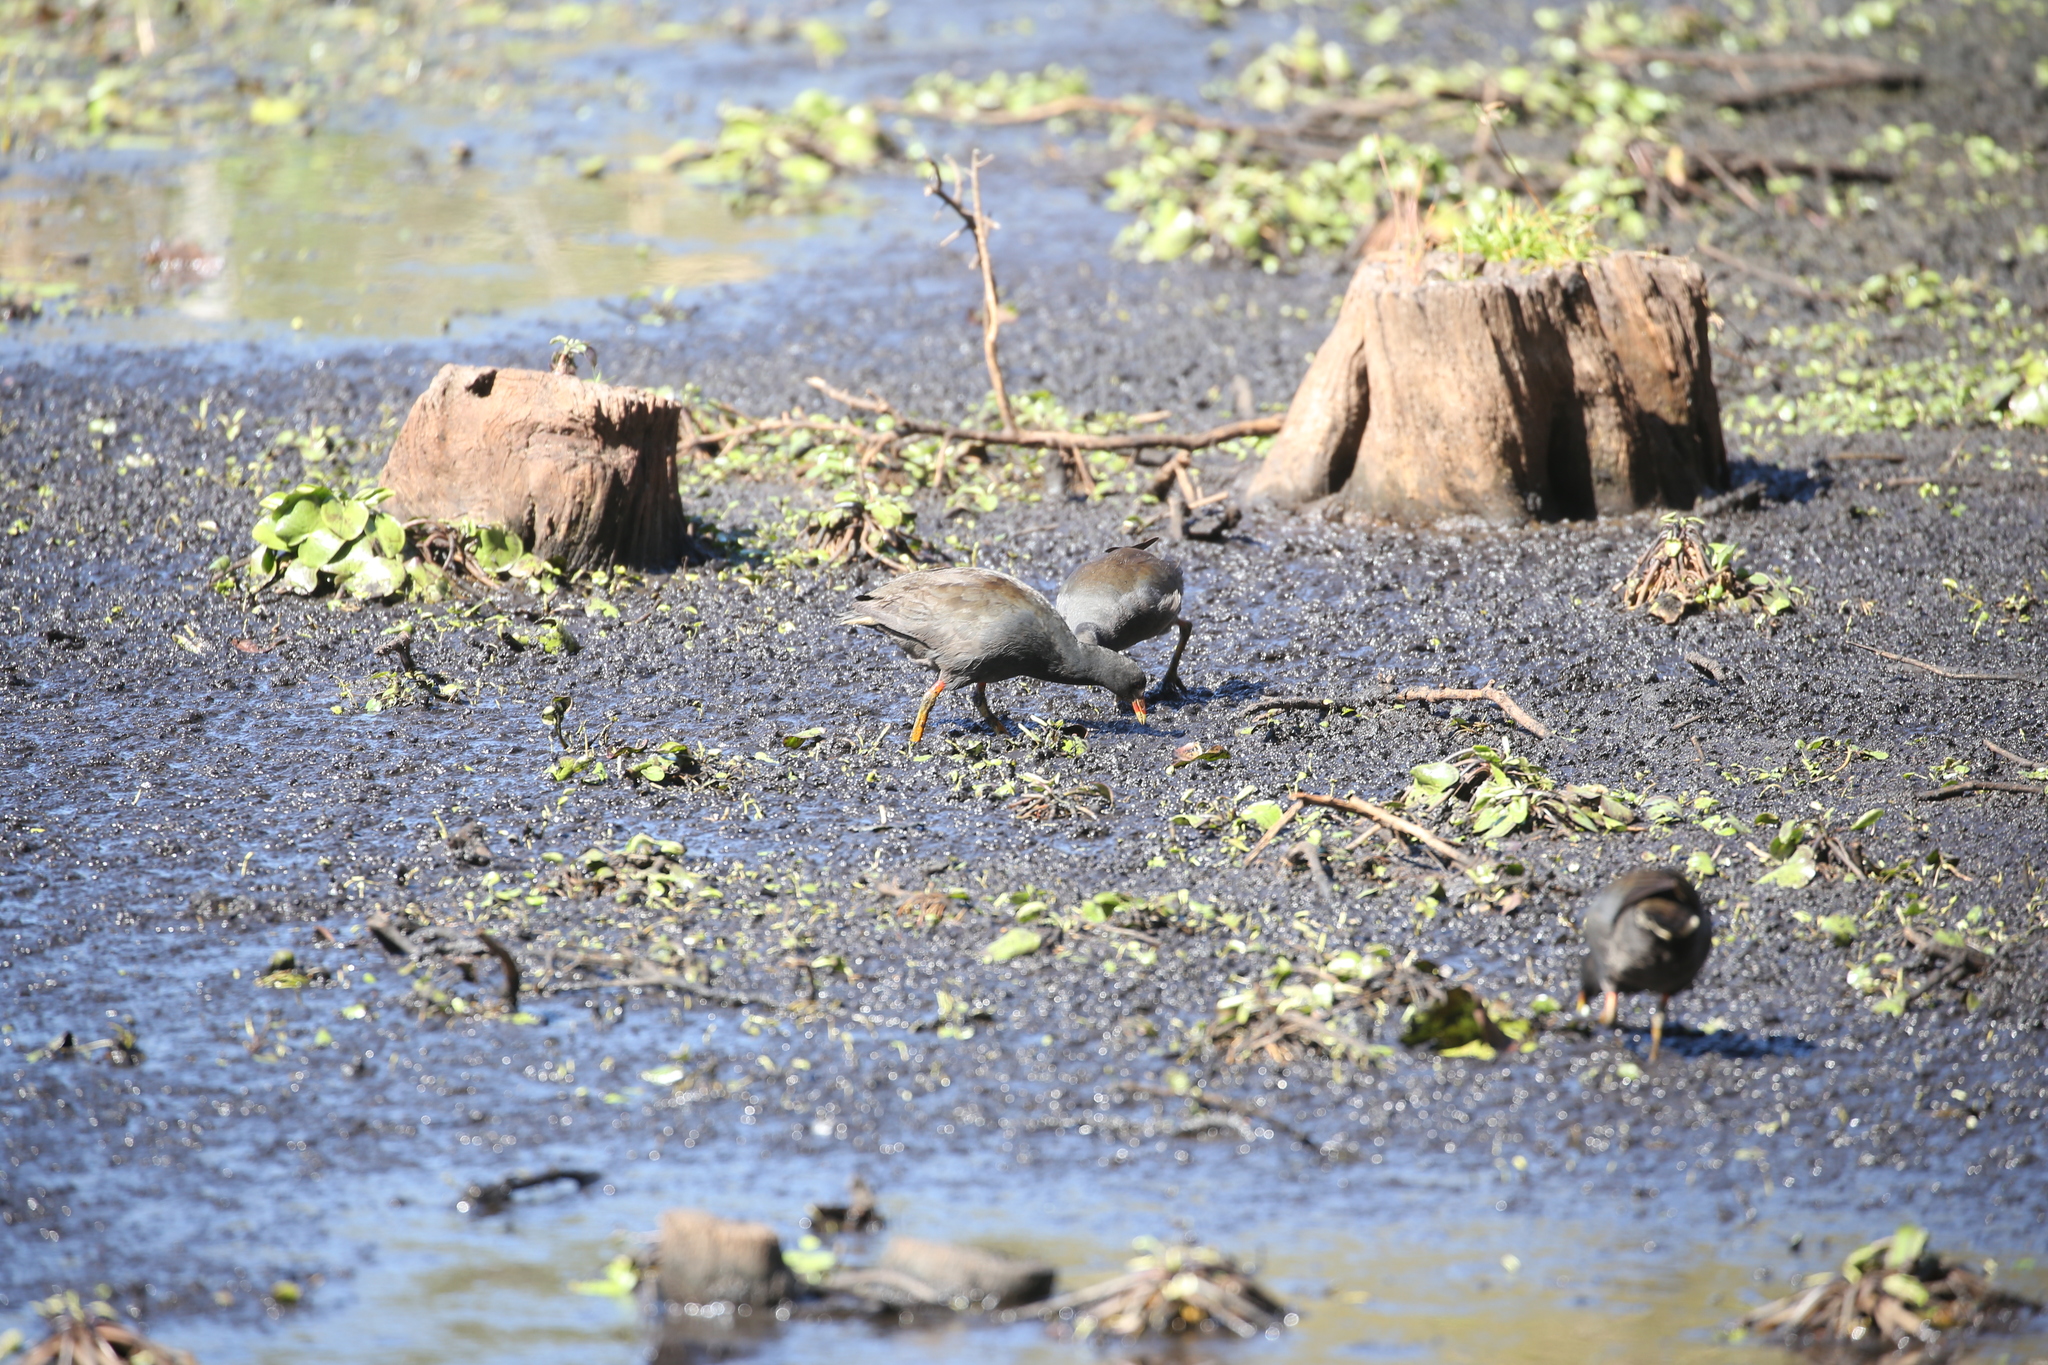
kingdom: Animalia
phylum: Chordata
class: Aves
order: Gruiformes
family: Rallidae
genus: Gallinula
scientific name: Gallinula tenebrosa
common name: Dusky moorhen
